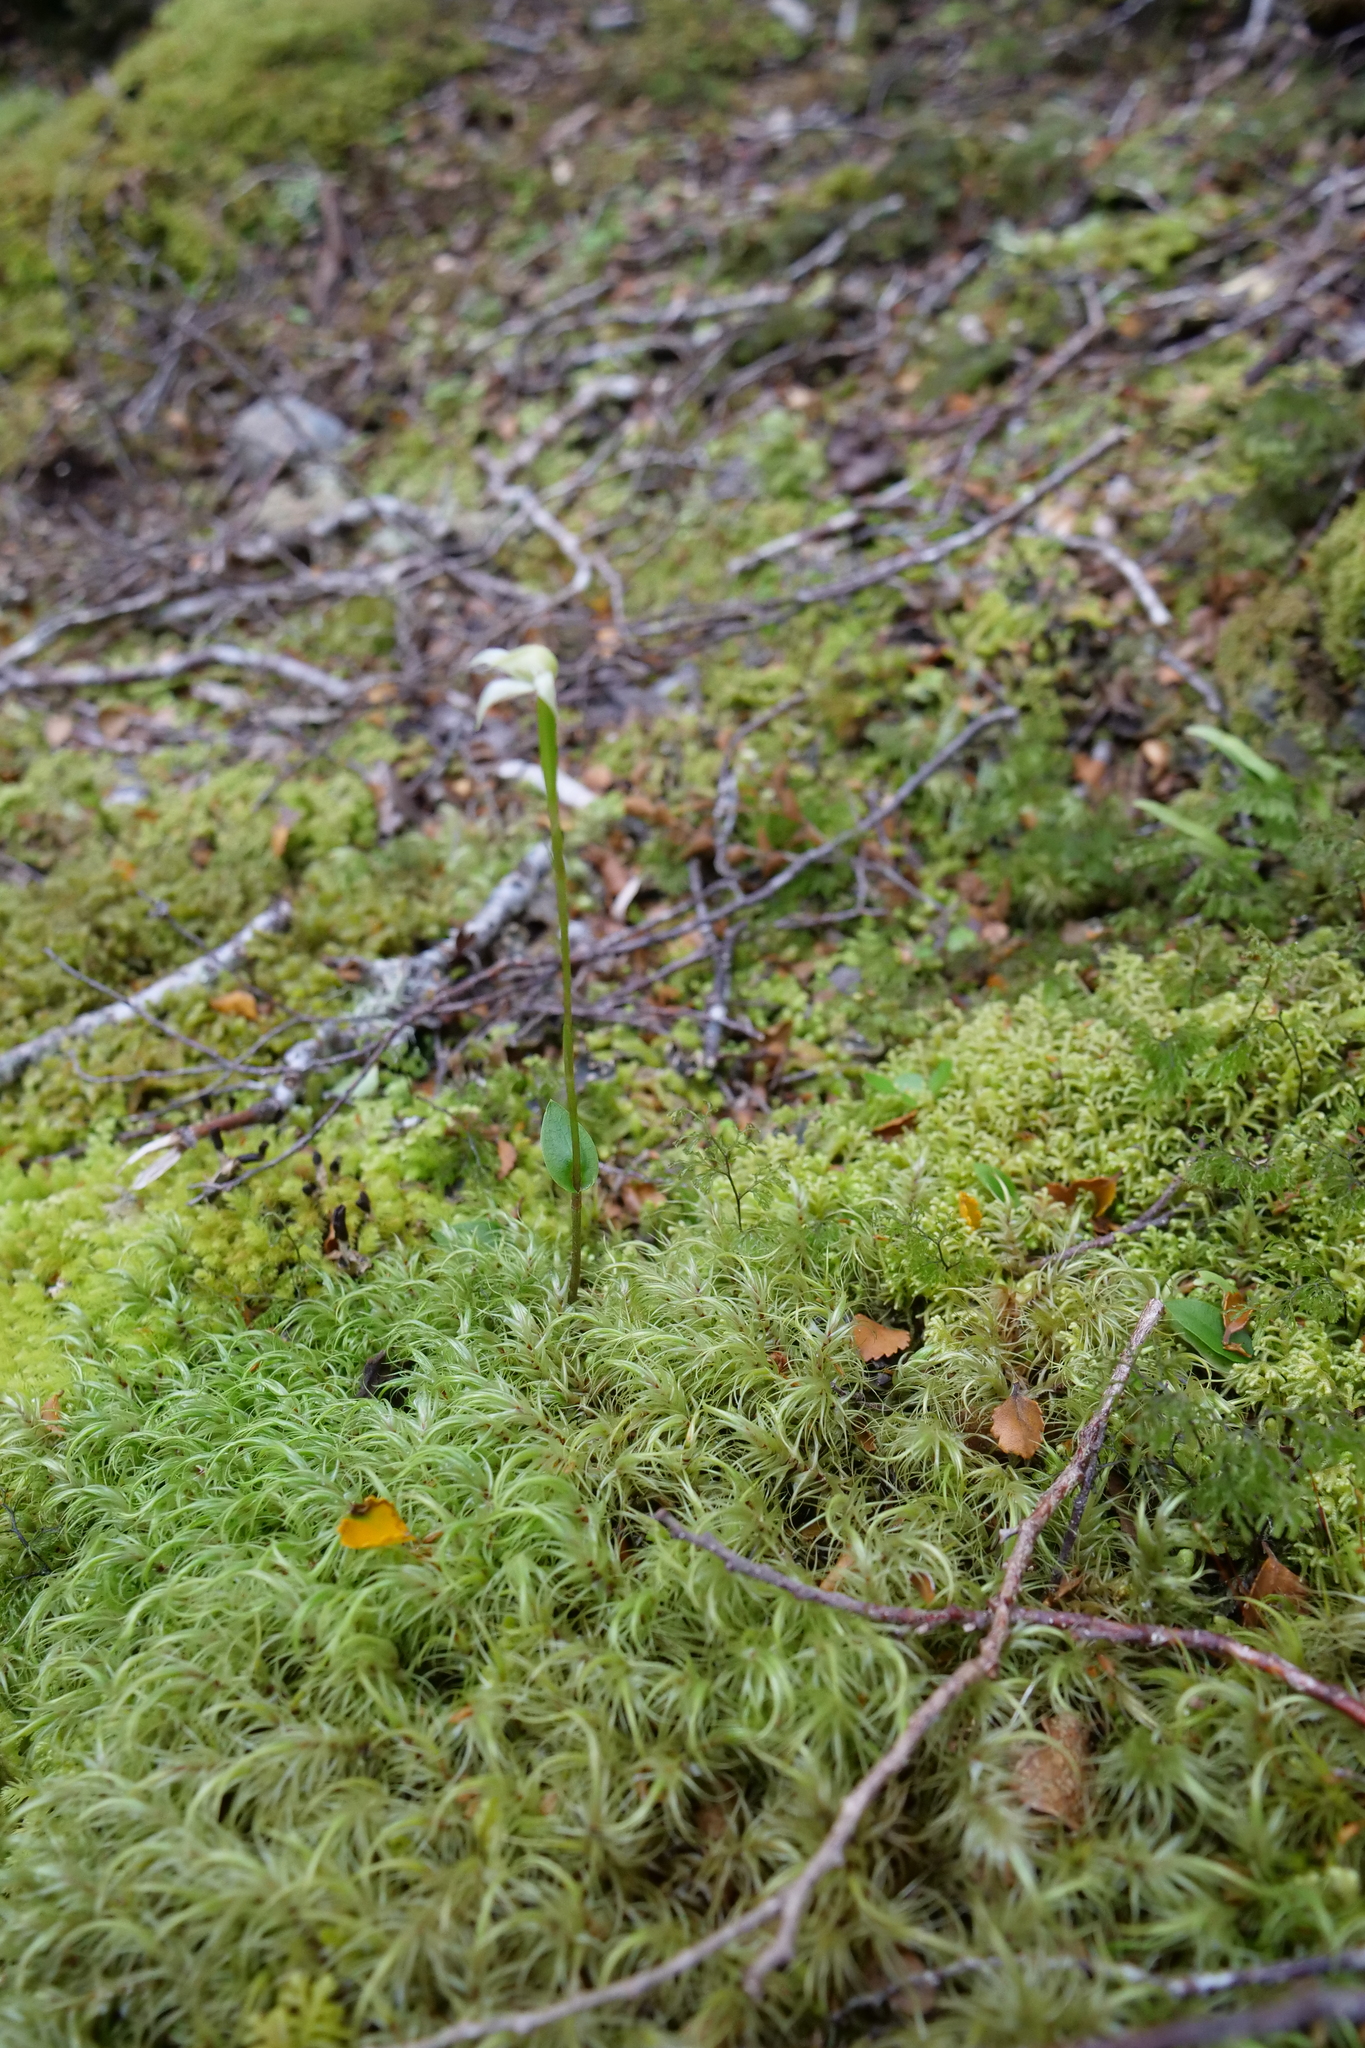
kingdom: Plantae
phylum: Tracheophyta
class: Liliopsida
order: Asparagales
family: Orchidaceae
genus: Adenochilus
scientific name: Adenochilus gracilis
